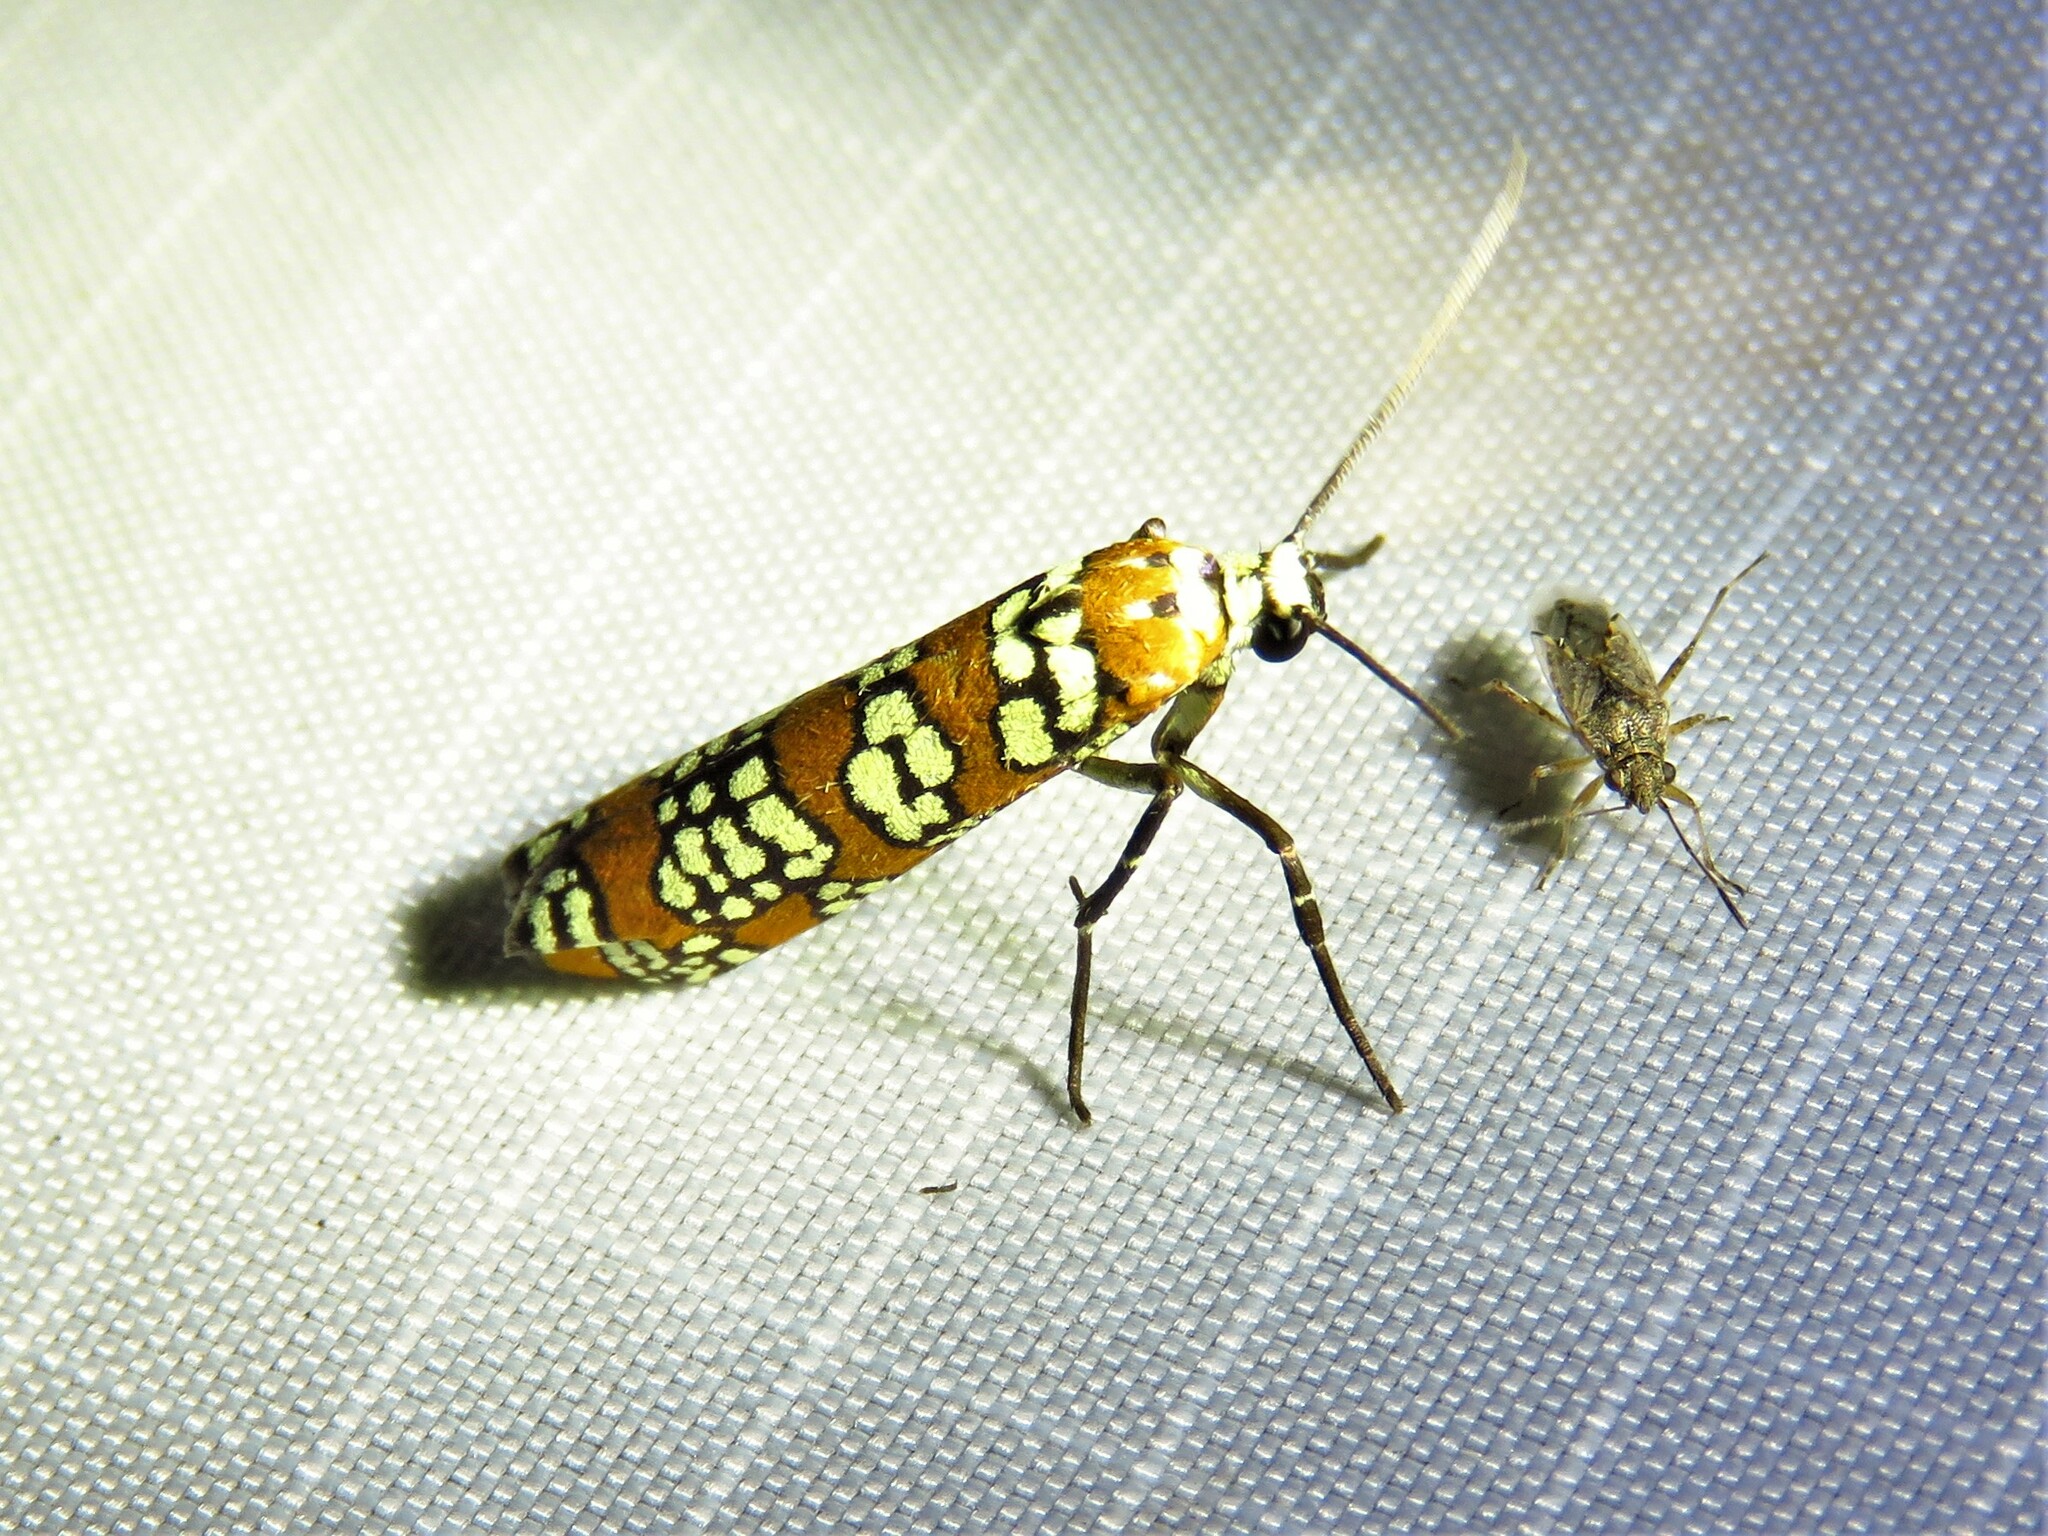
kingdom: Animalia
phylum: Arthropoda
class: Insecta
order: Lepidoptera
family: Attevidae
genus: Atteva
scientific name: Atteva punctella
